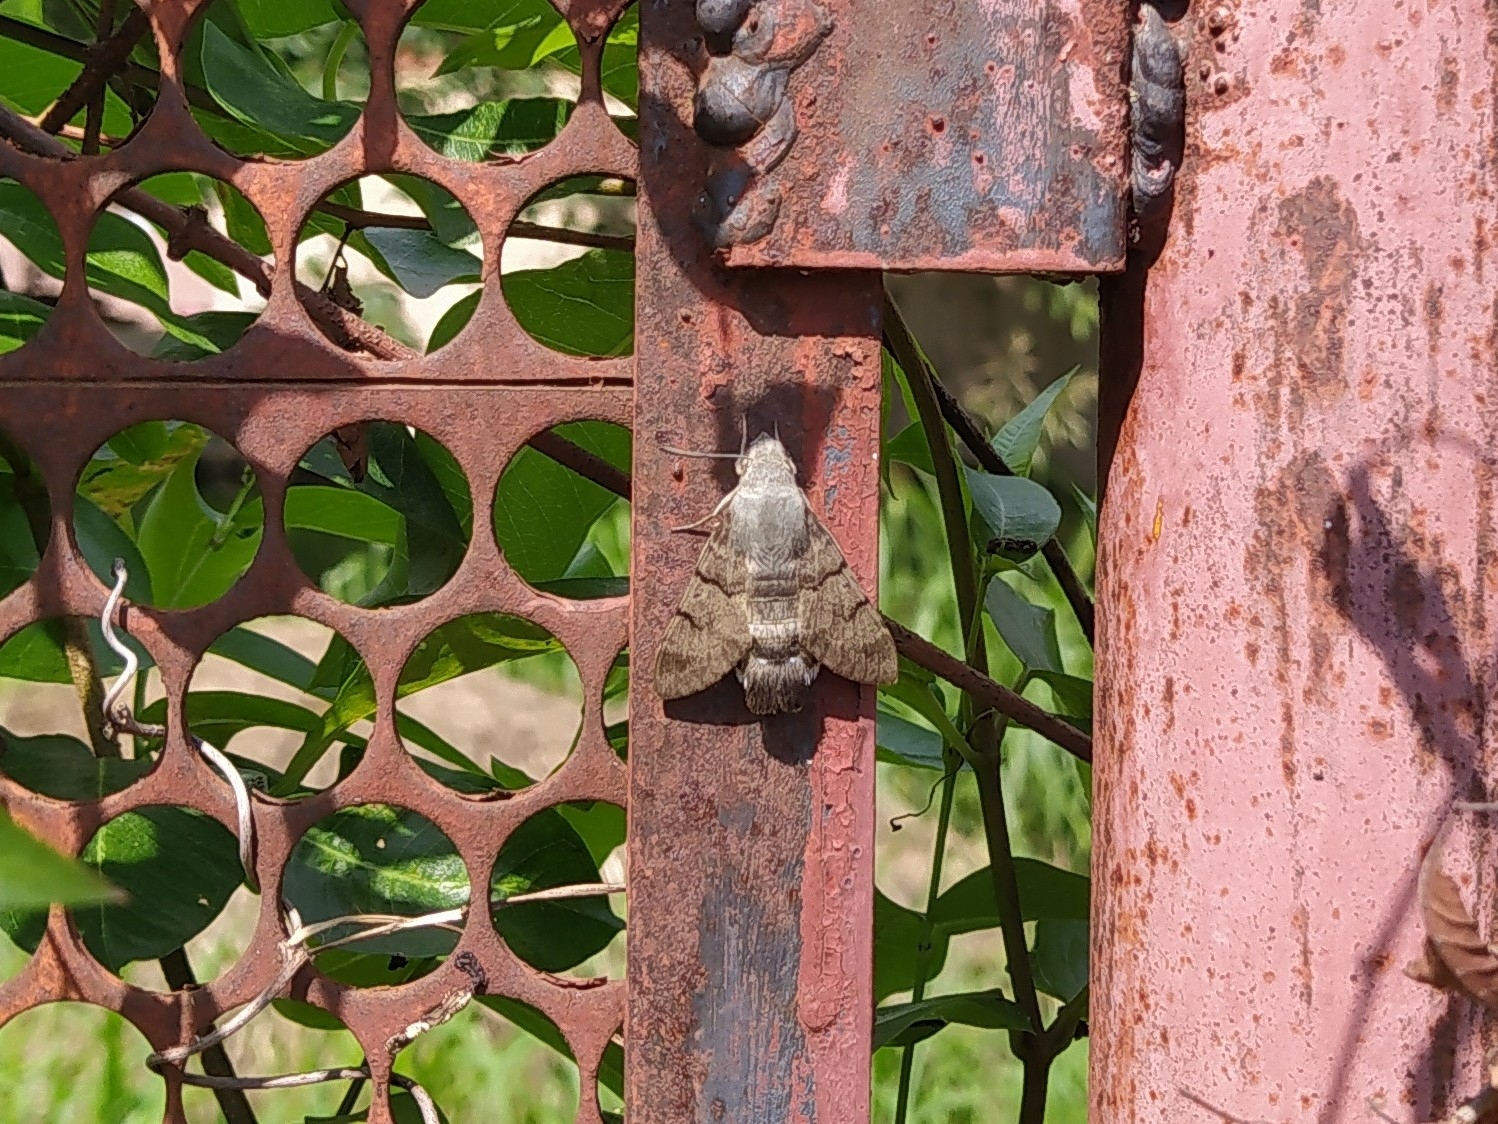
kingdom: Animalia
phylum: Arthropoda
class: Insecta
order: Lepidoptera
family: Sphingidae
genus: Macroglossum
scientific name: Macroglossum stellatarum
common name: Humming-bird hawk-moth
